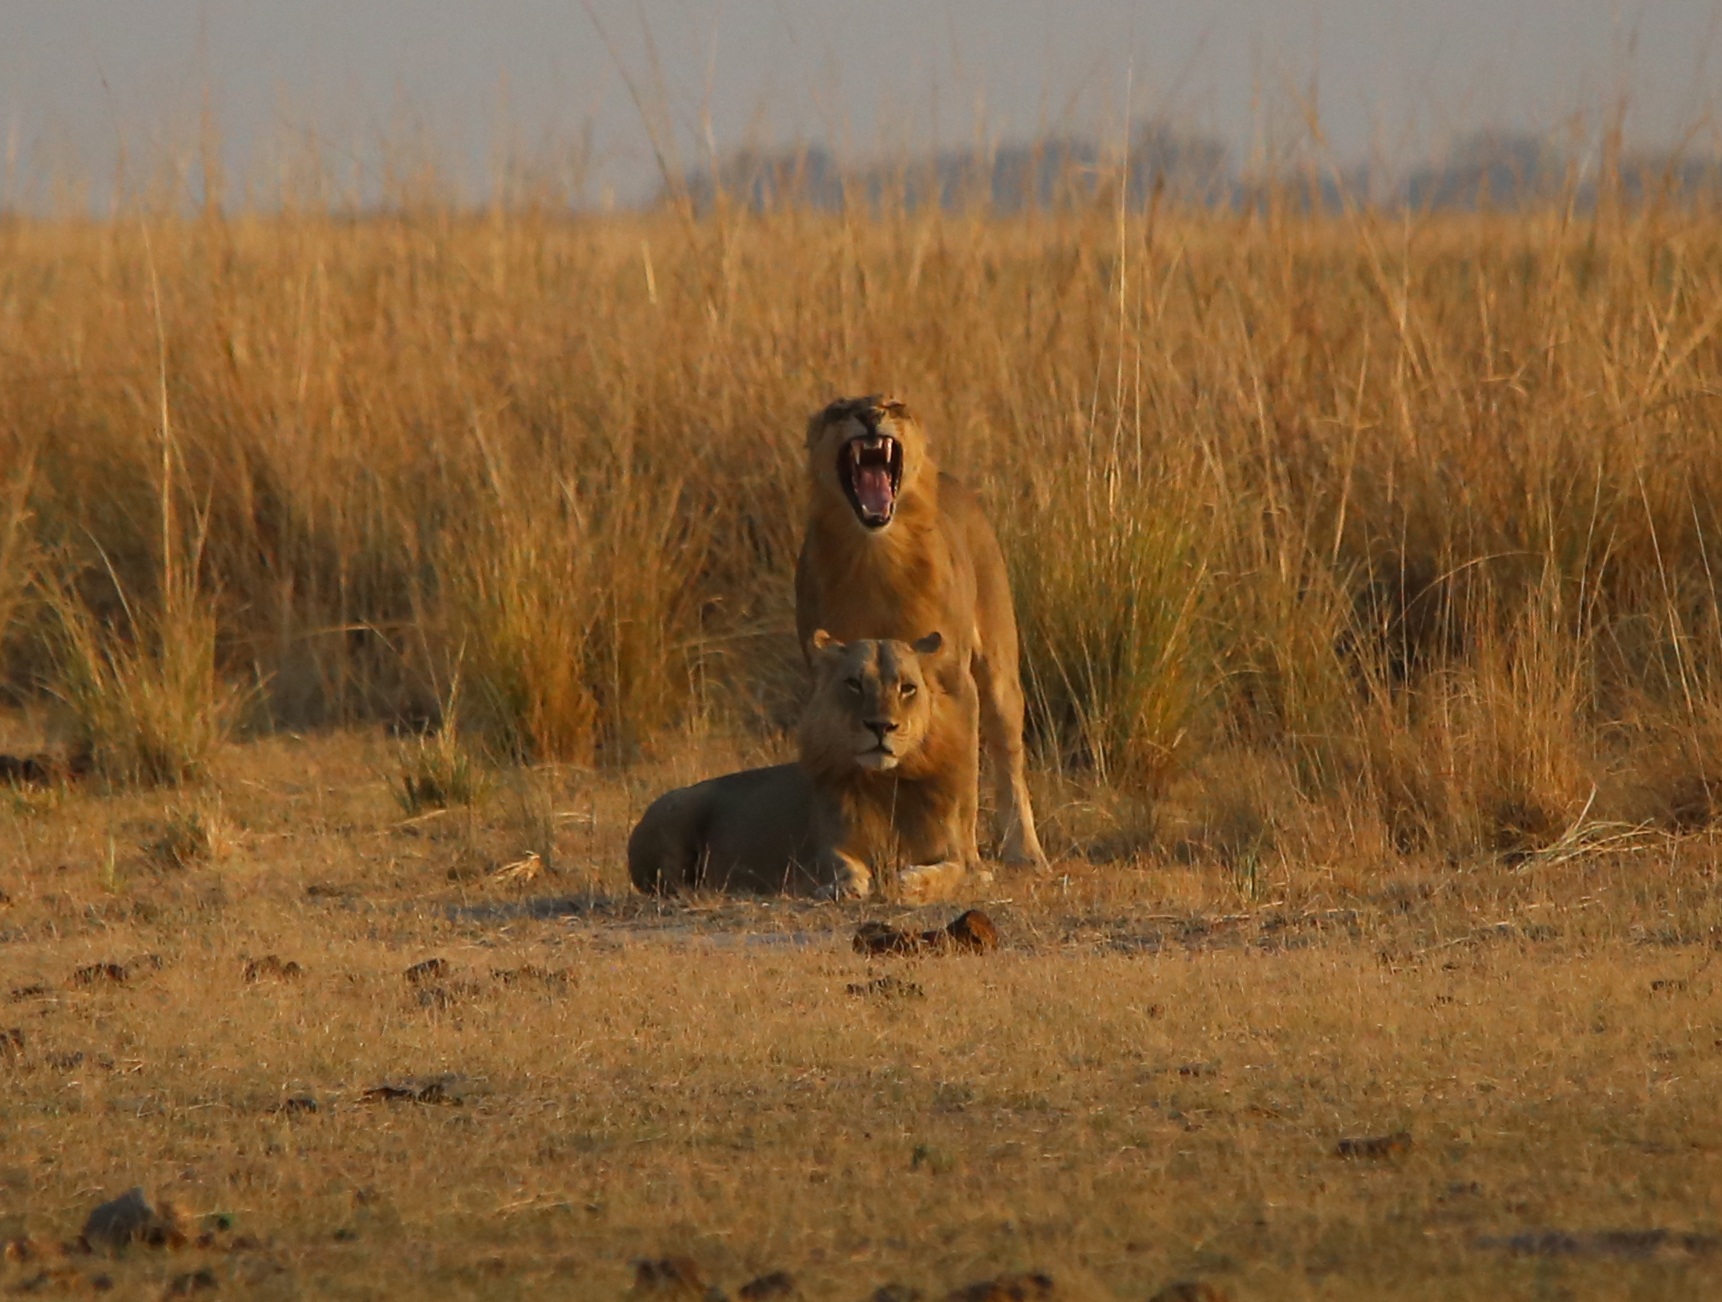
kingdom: Animalia
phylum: Chordata
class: Mammalia
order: Carnivora
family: Felidae
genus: Panthera
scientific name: Panthera leo
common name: Lion
